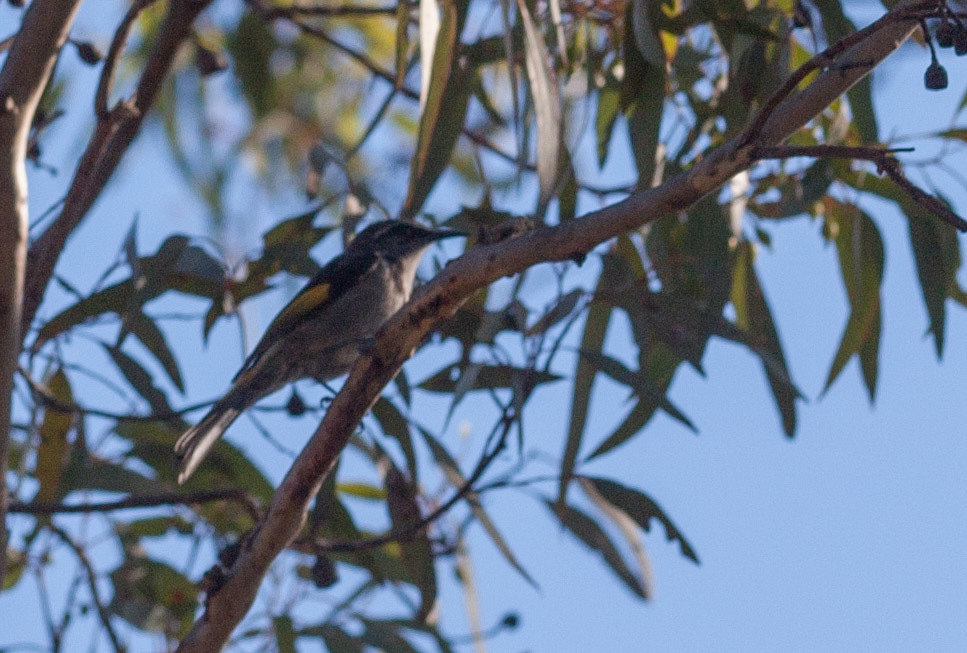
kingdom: Animalia
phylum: Chordata
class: Aves
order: Passeriformes
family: Meliphagidae
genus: Phylidonyris
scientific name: Phylidonyris pyrrhopterus
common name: Crescent honeyeater
